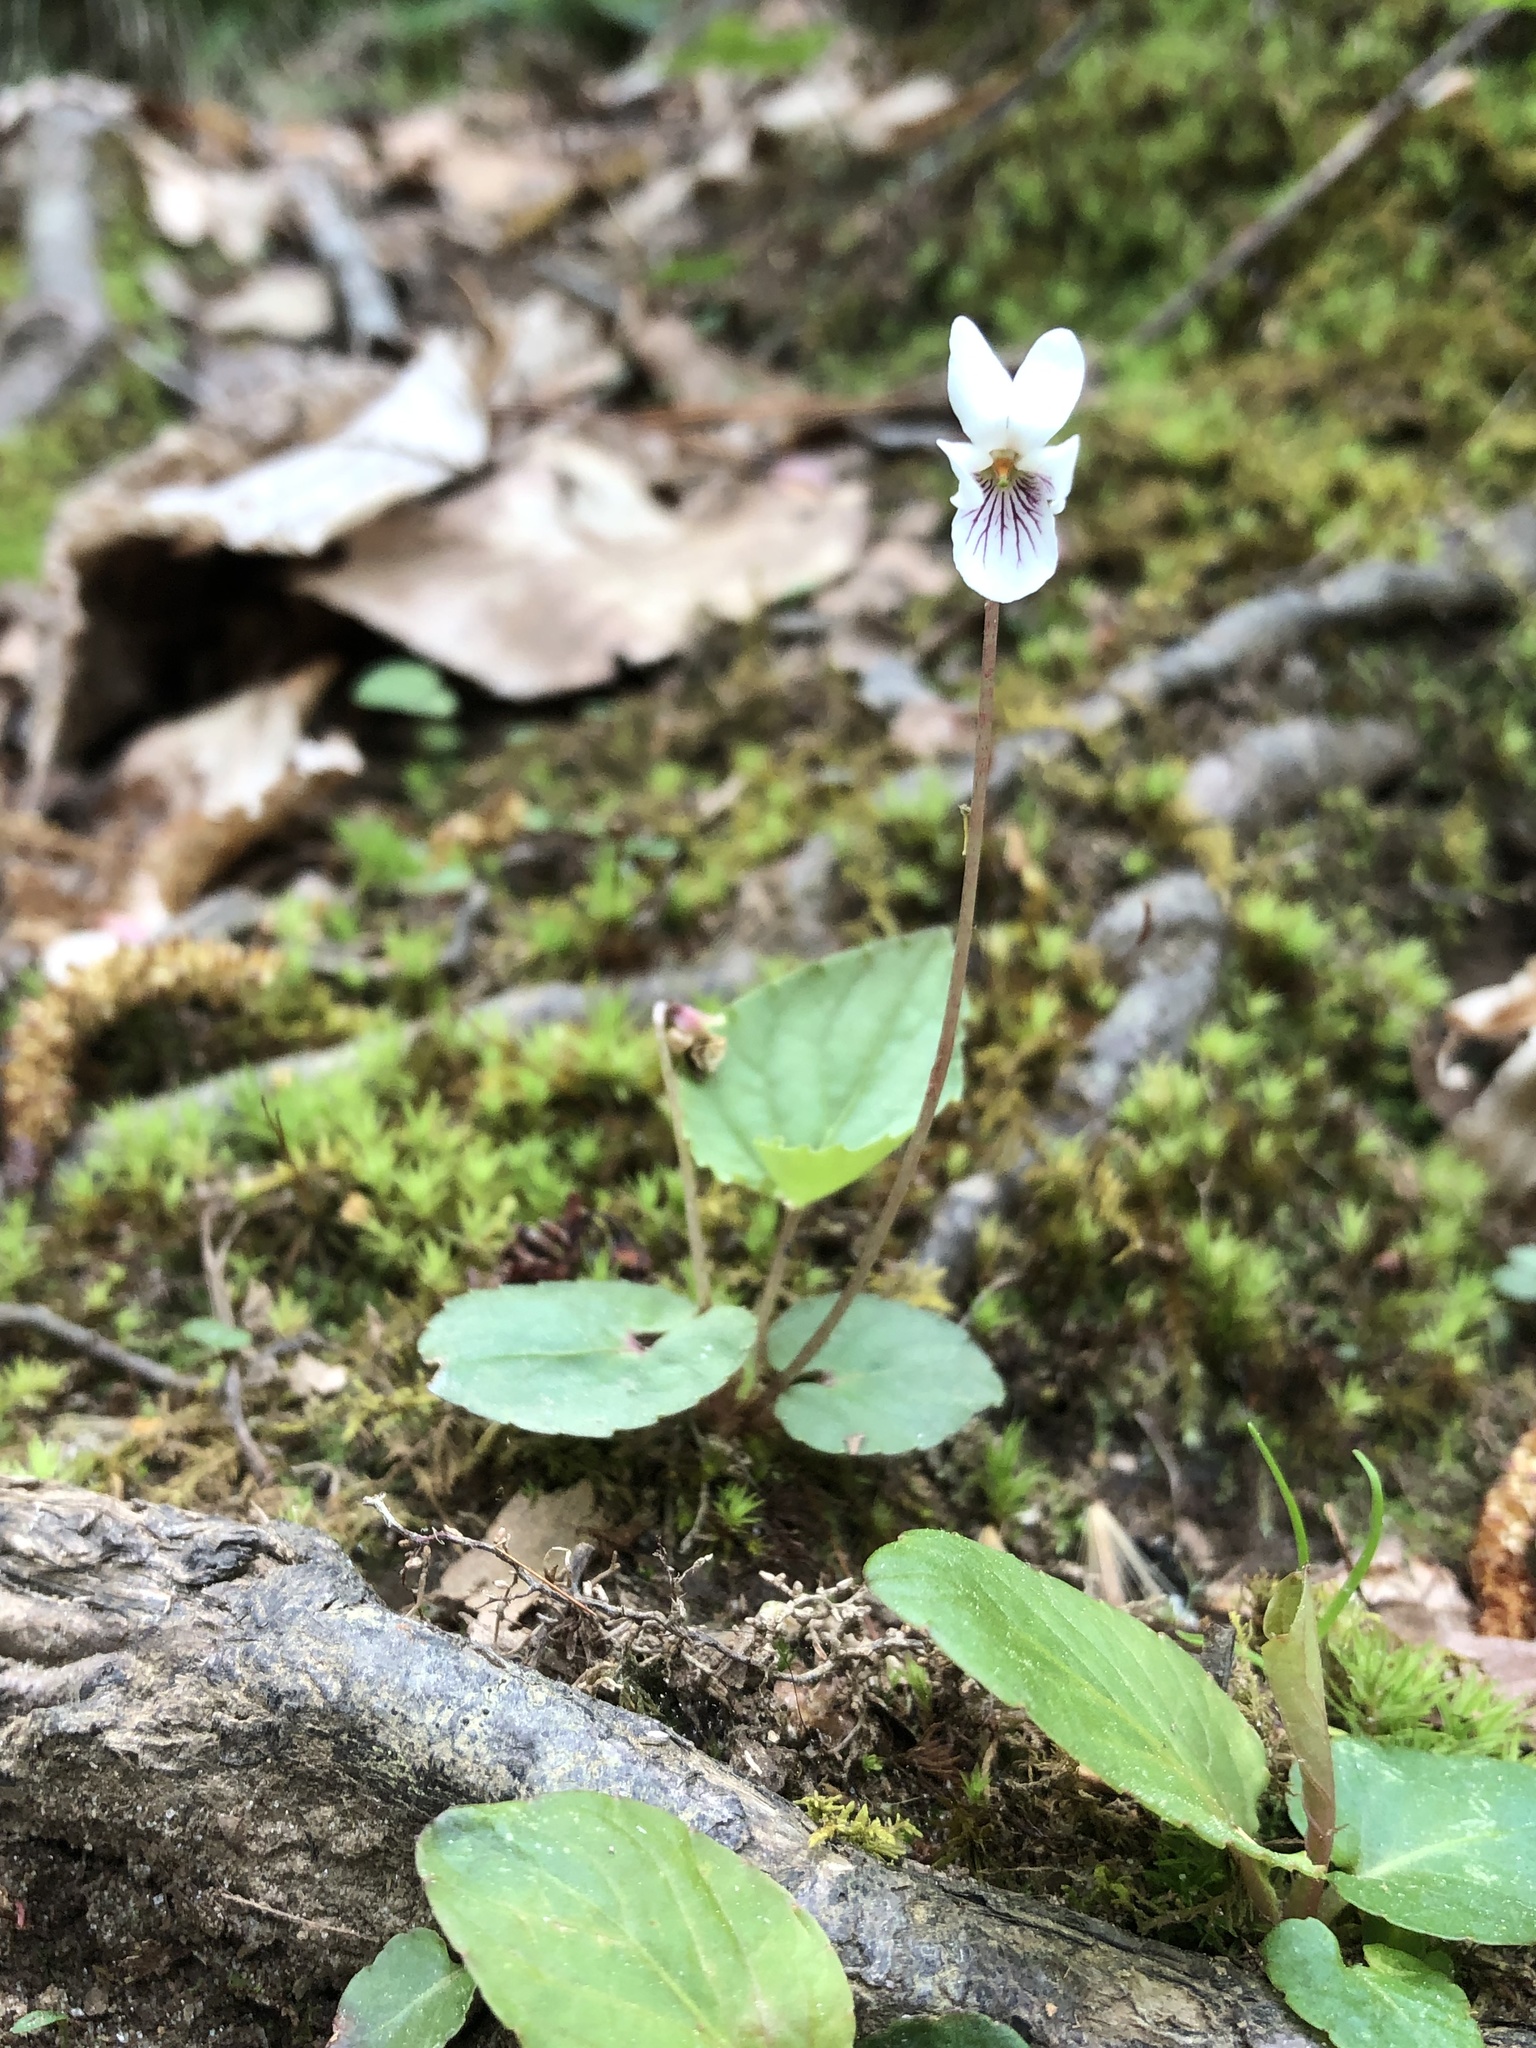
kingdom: Plantae
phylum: Tracheophyta
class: Magnoliopsida
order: Malpighiales
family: Violaceae
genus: Viola
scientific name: Viola blanda
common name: Sweet white violet
